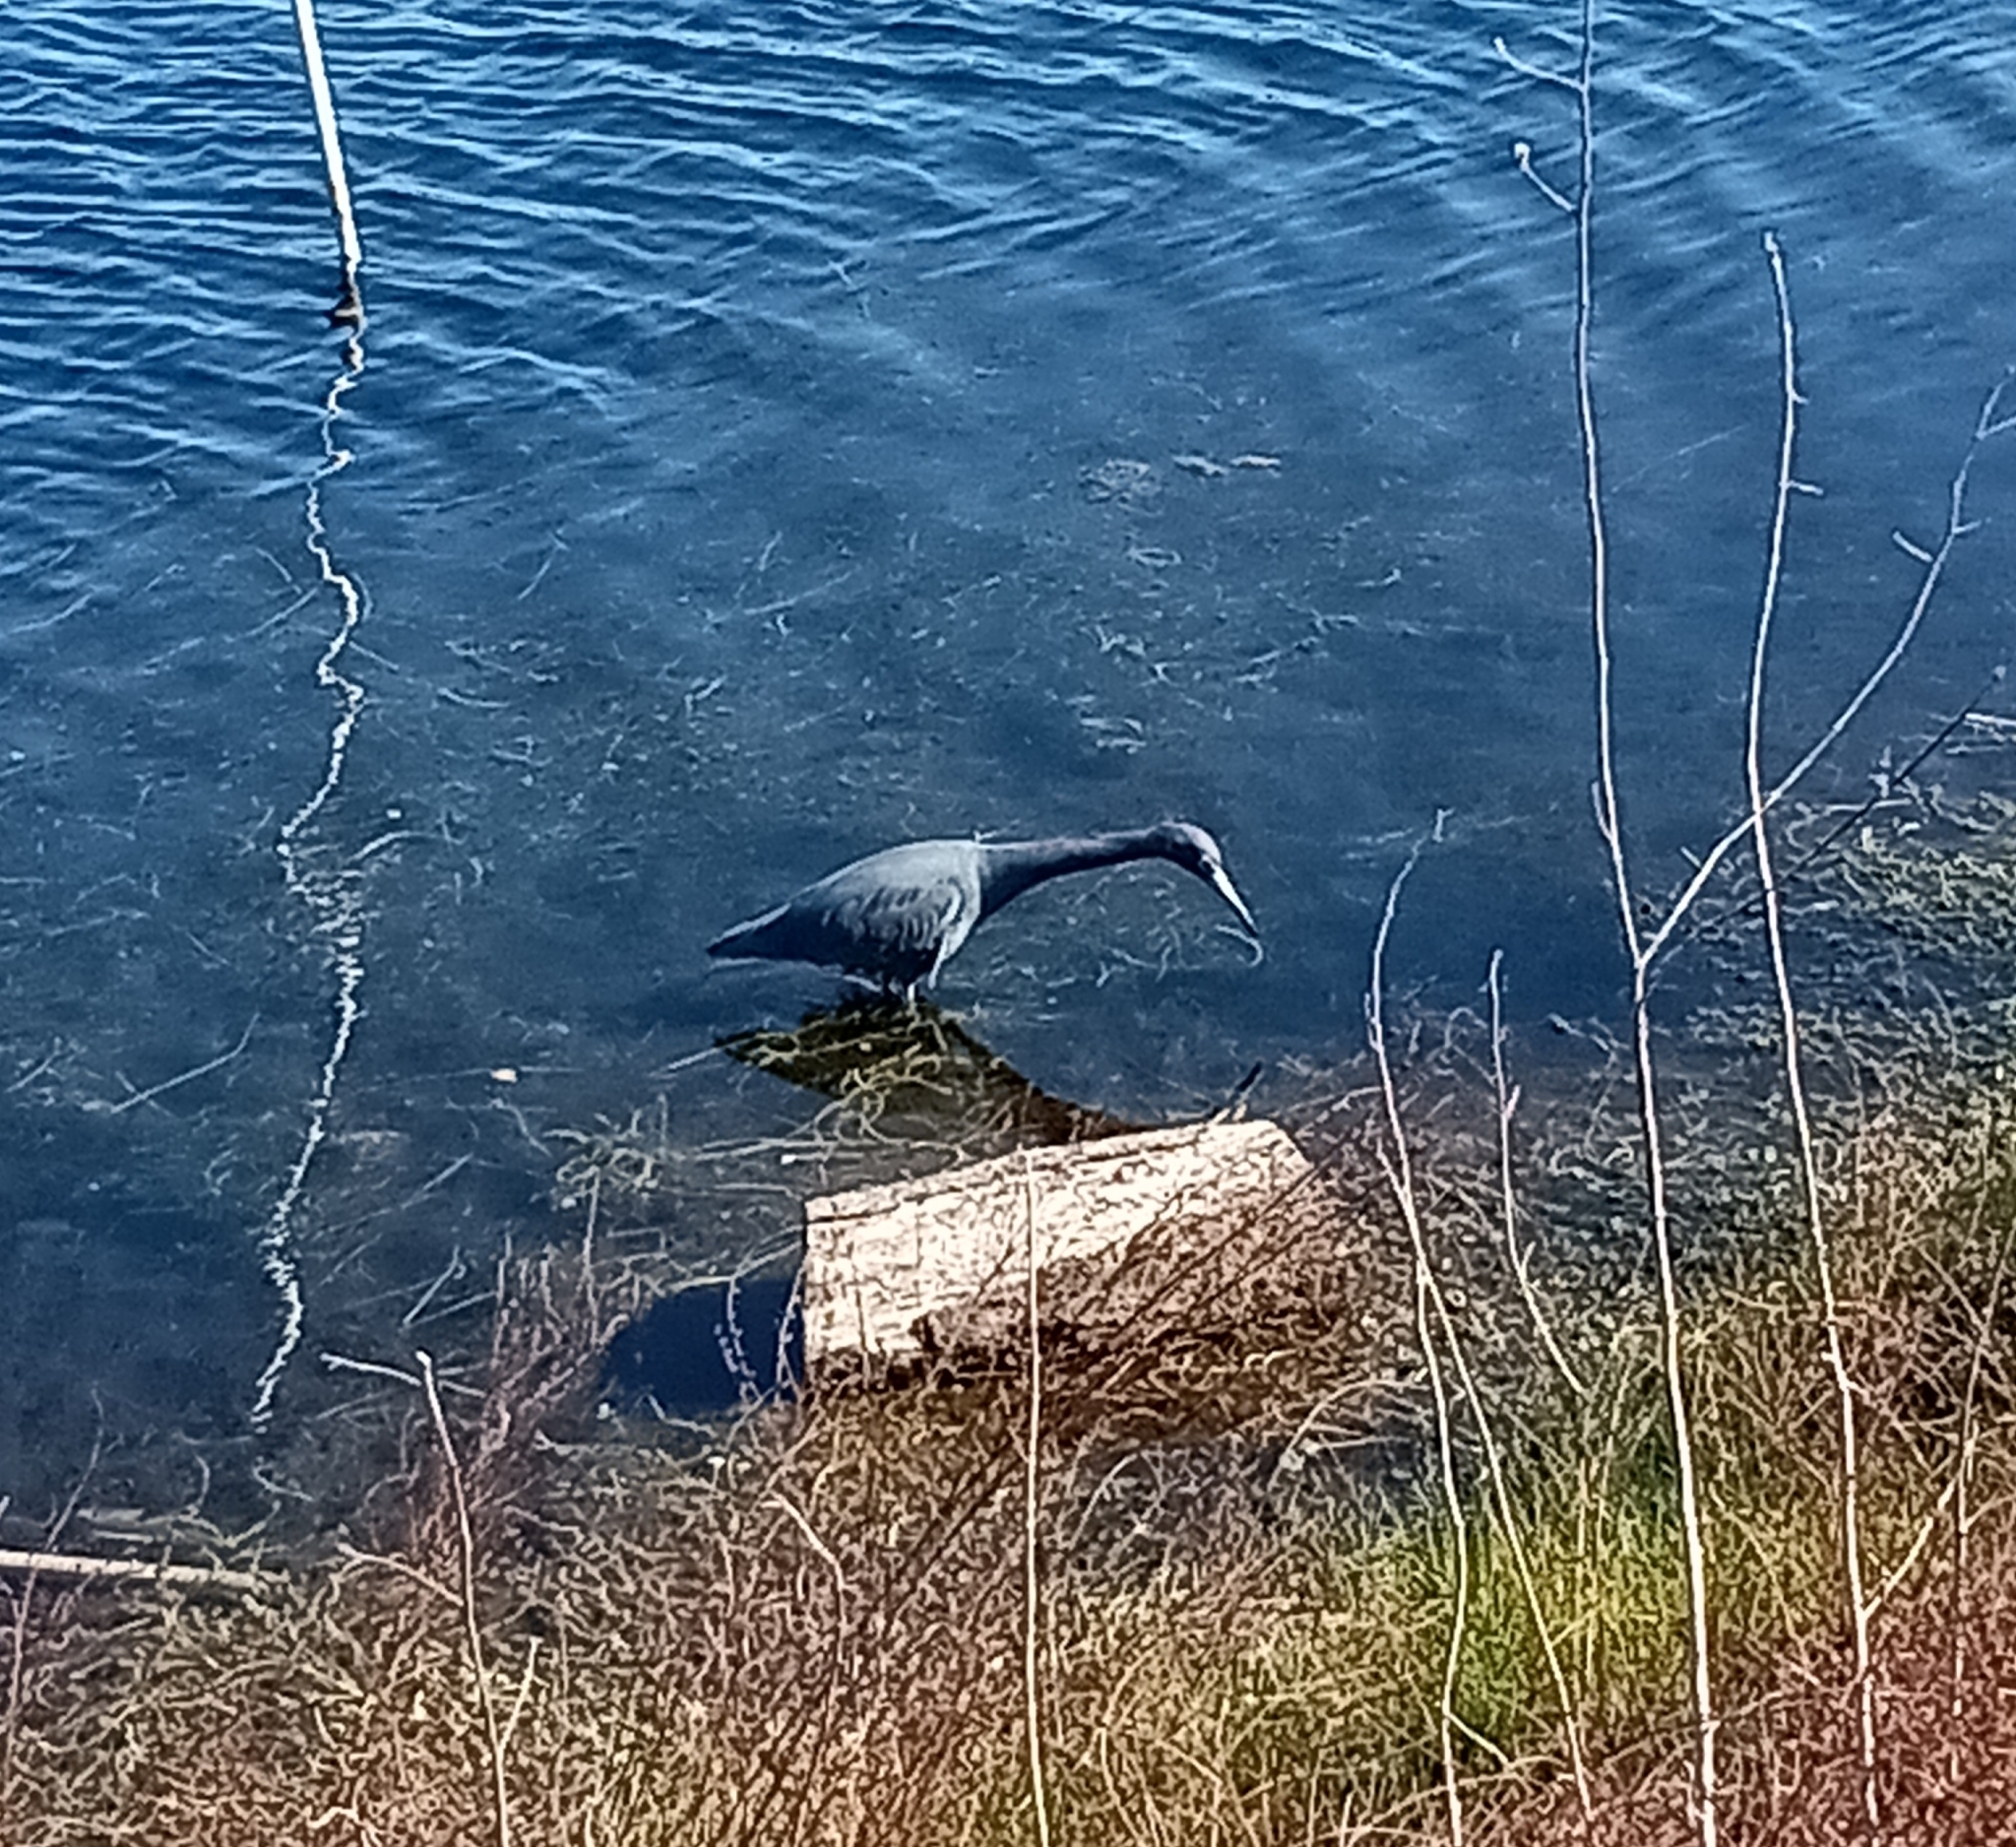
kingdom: Animalia
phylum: Chordata
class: Aves
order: Pelecaniformes
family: Ardeidae
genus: Egretta
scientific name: Egretta caerulea
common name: Little blue heron
